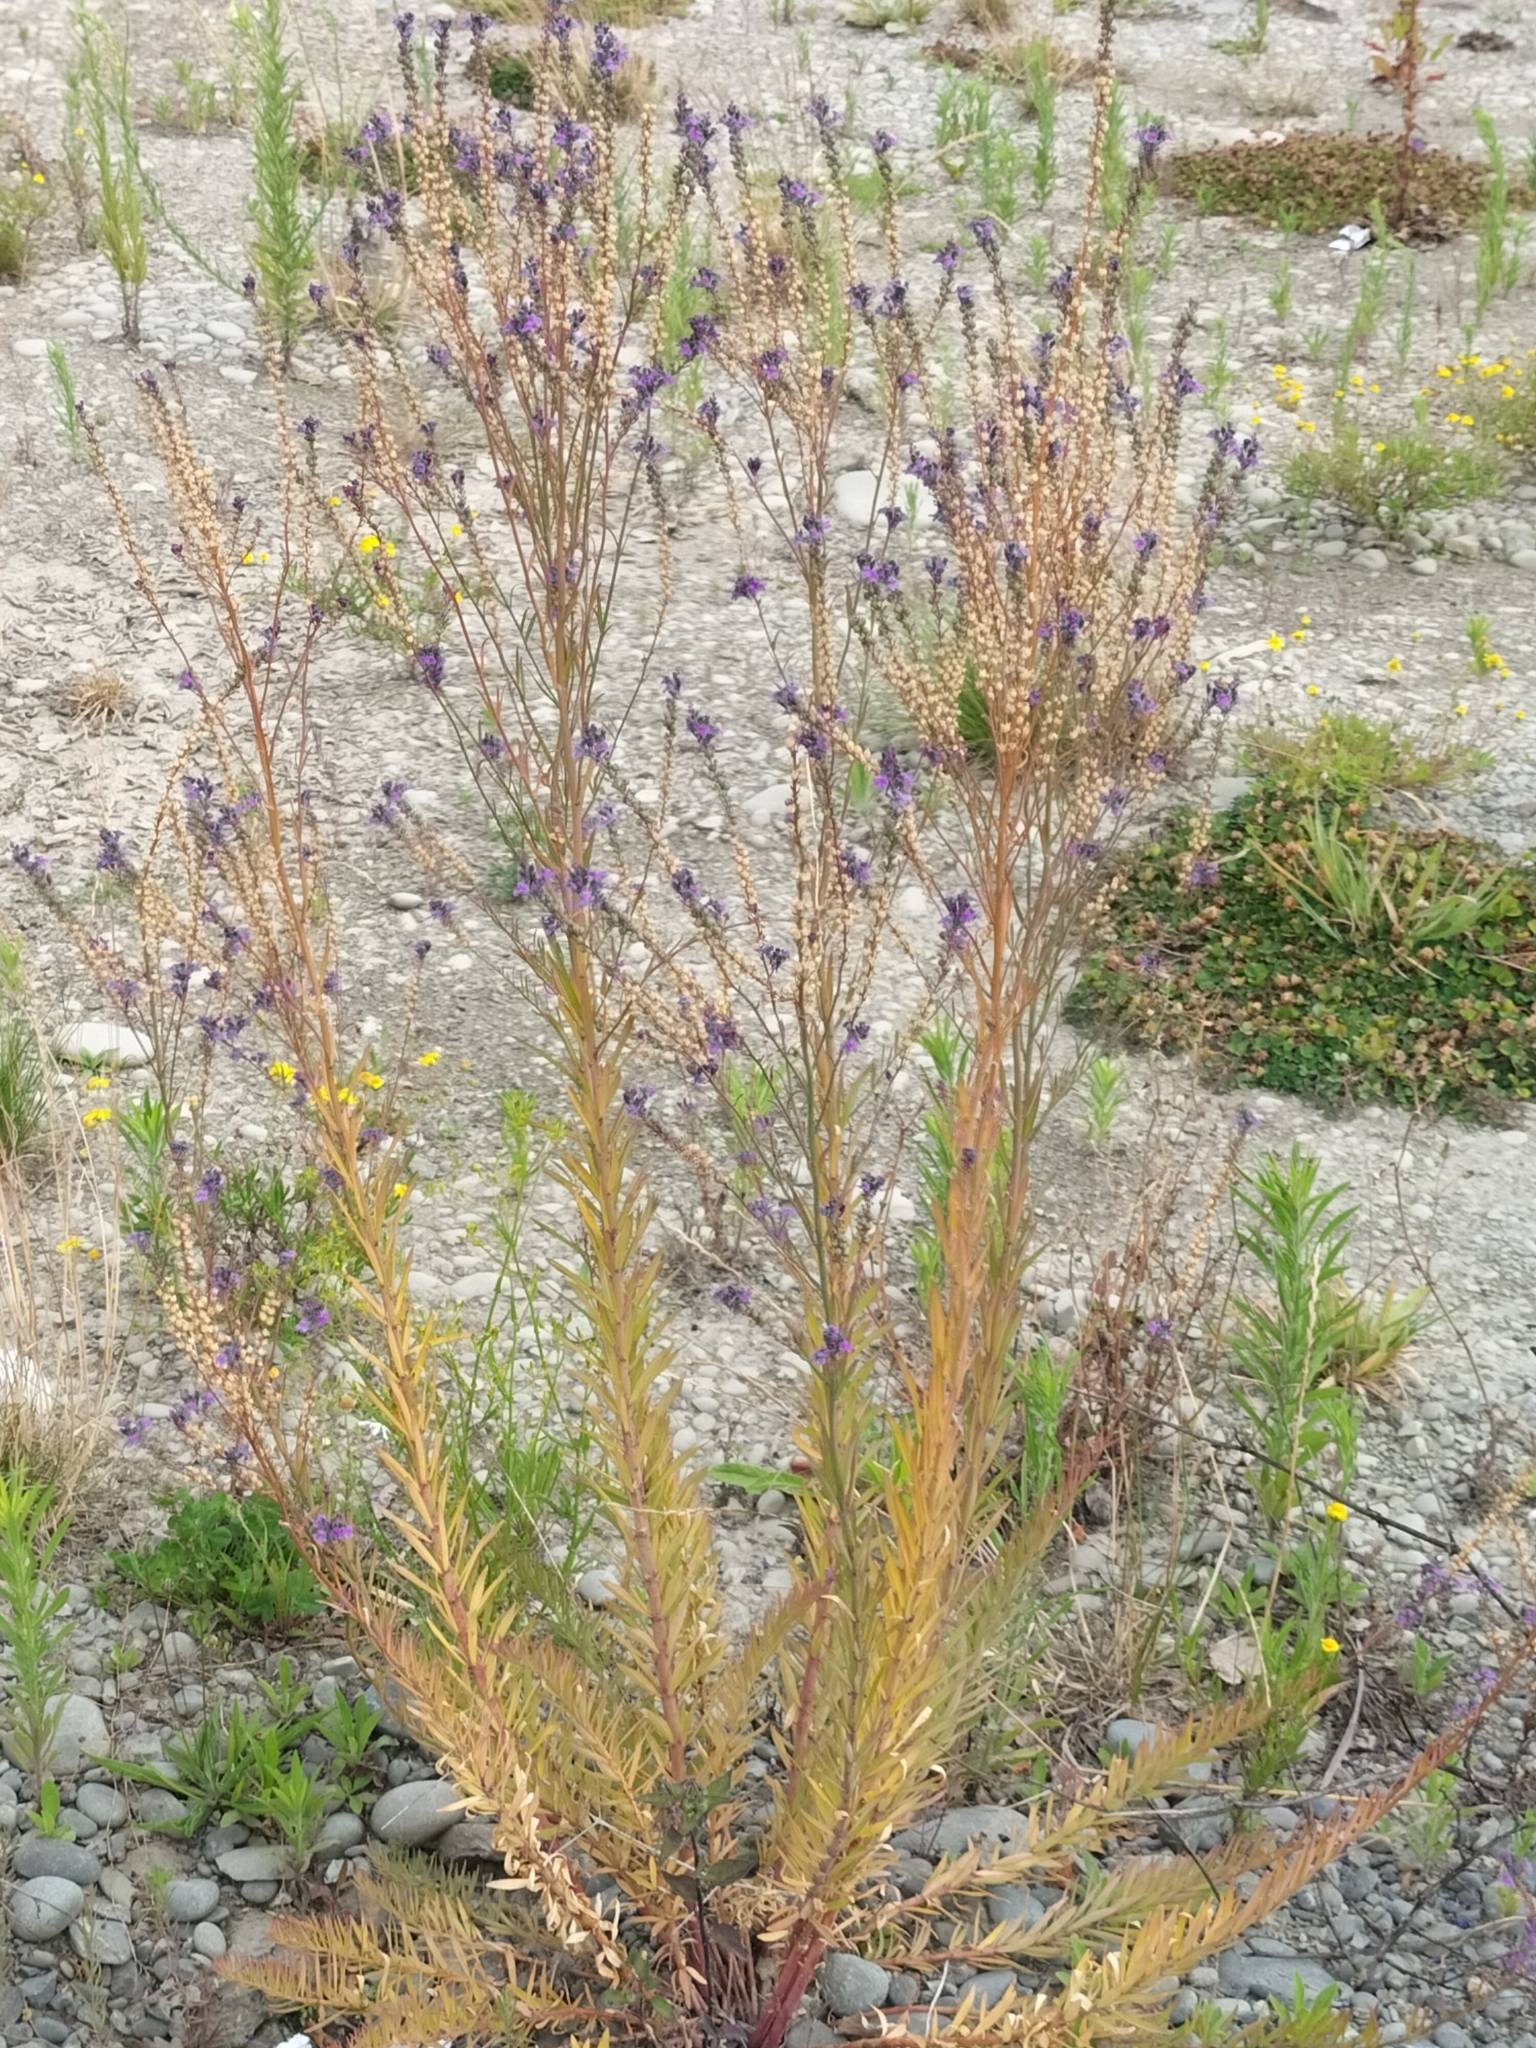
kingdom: Plantae
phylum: Tracheophyta
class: Magnoliopsida
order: Lamiales
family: Plantaginaceae
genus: Linaria
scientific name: Linaria purpurea
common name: Purple toadflax
